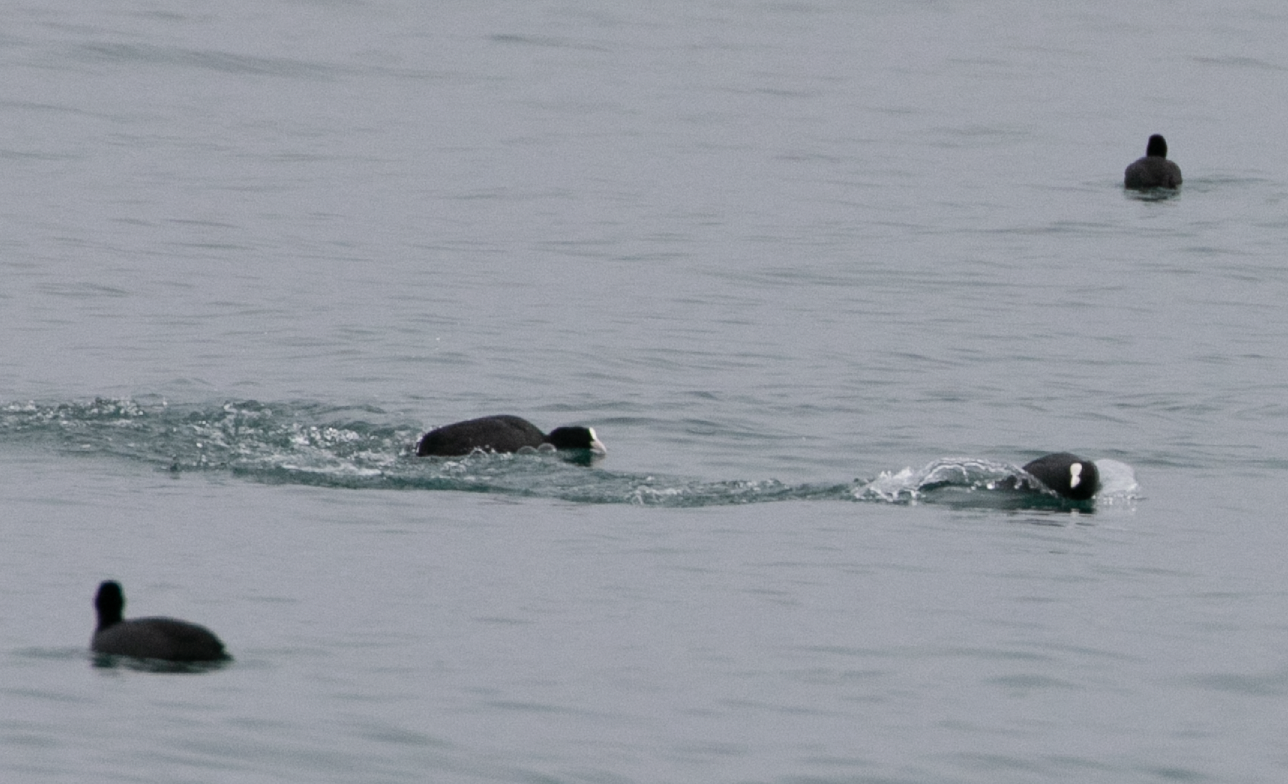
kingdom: Animalia
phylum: Chordata
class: Aves
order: Gruiformes
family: Rallidae
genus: Fulica
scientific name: Fulica atra
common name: Eurasian coot
